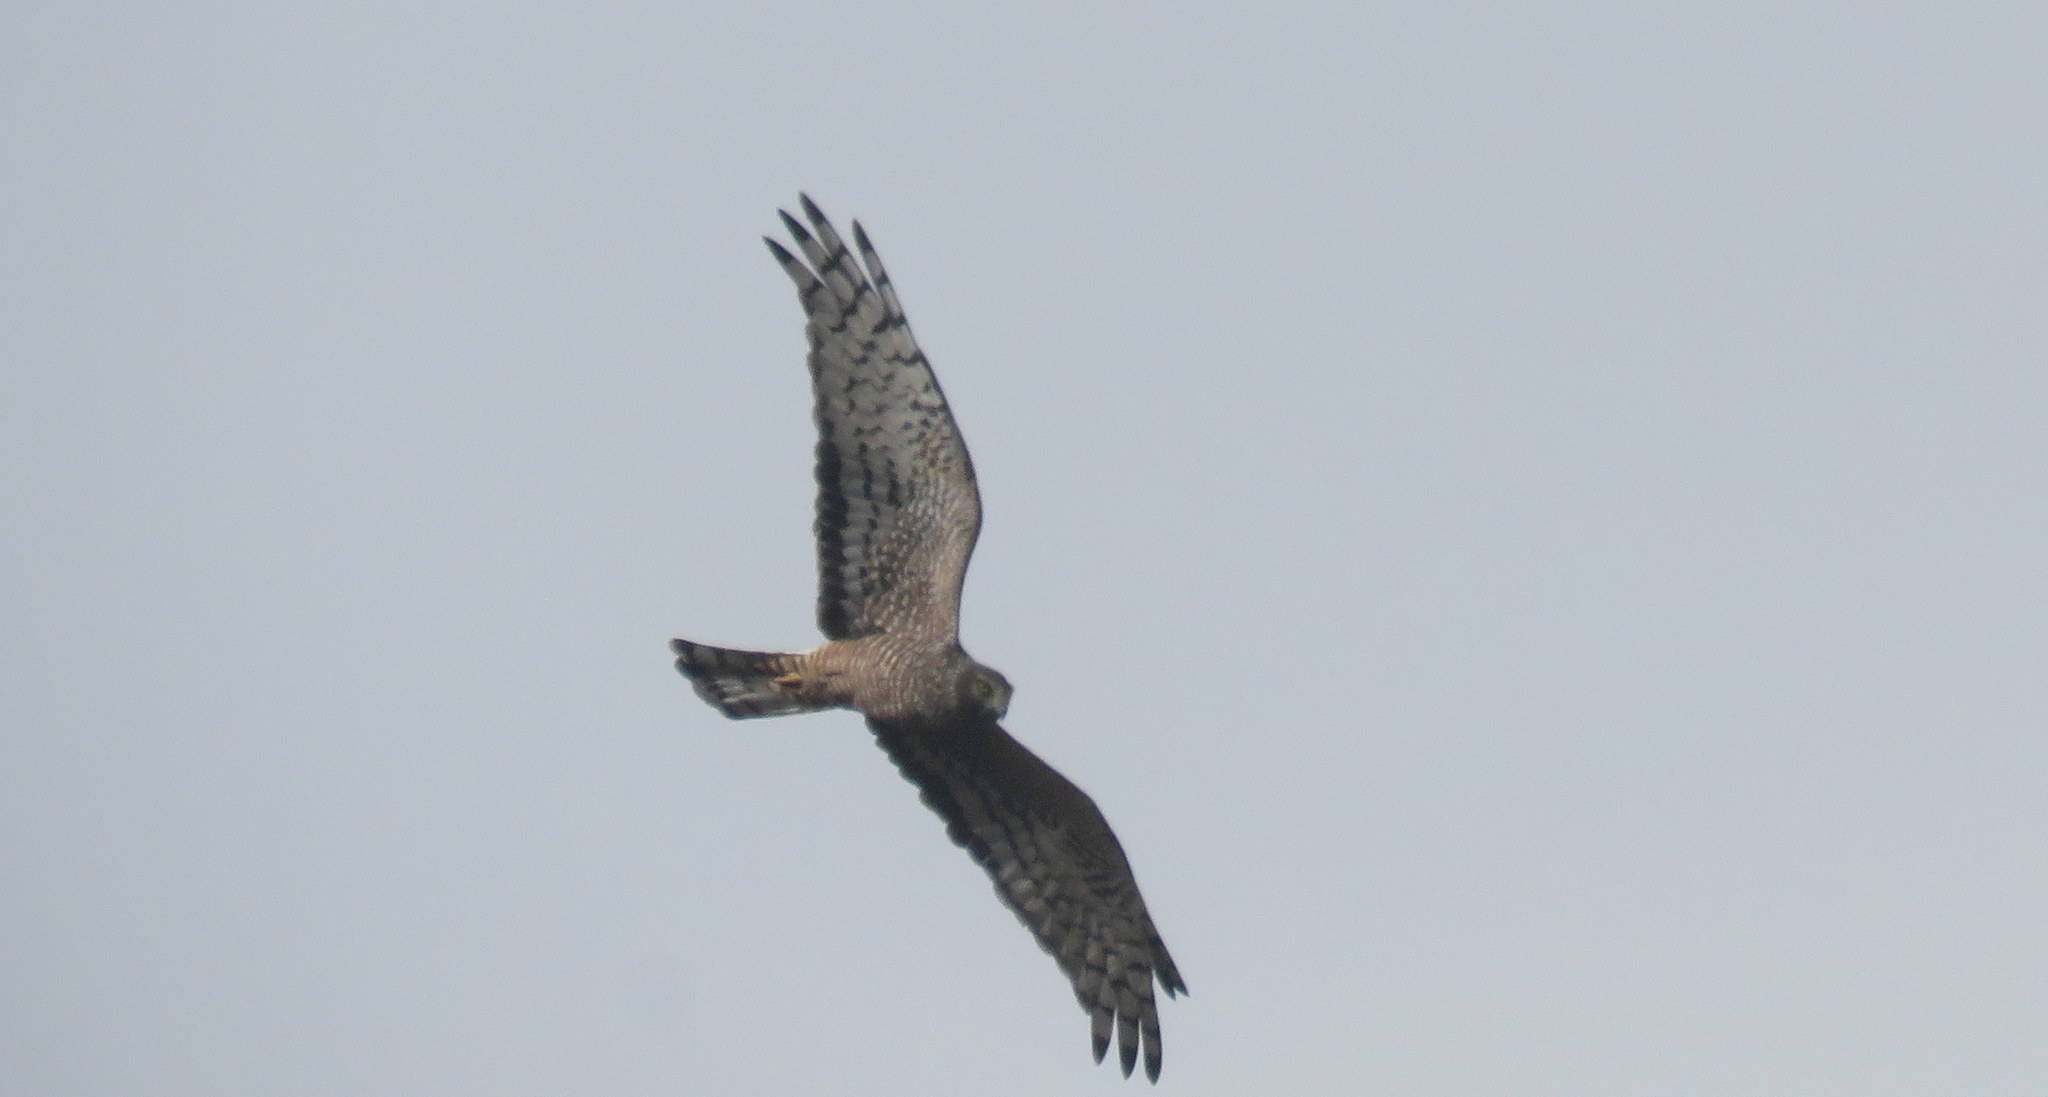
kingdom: Animalia
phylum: Chordata
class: Aves
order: Accipitriformes
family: Accipitridae
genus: Circus
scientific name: Circus cinereus
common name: Cinereous harrier
